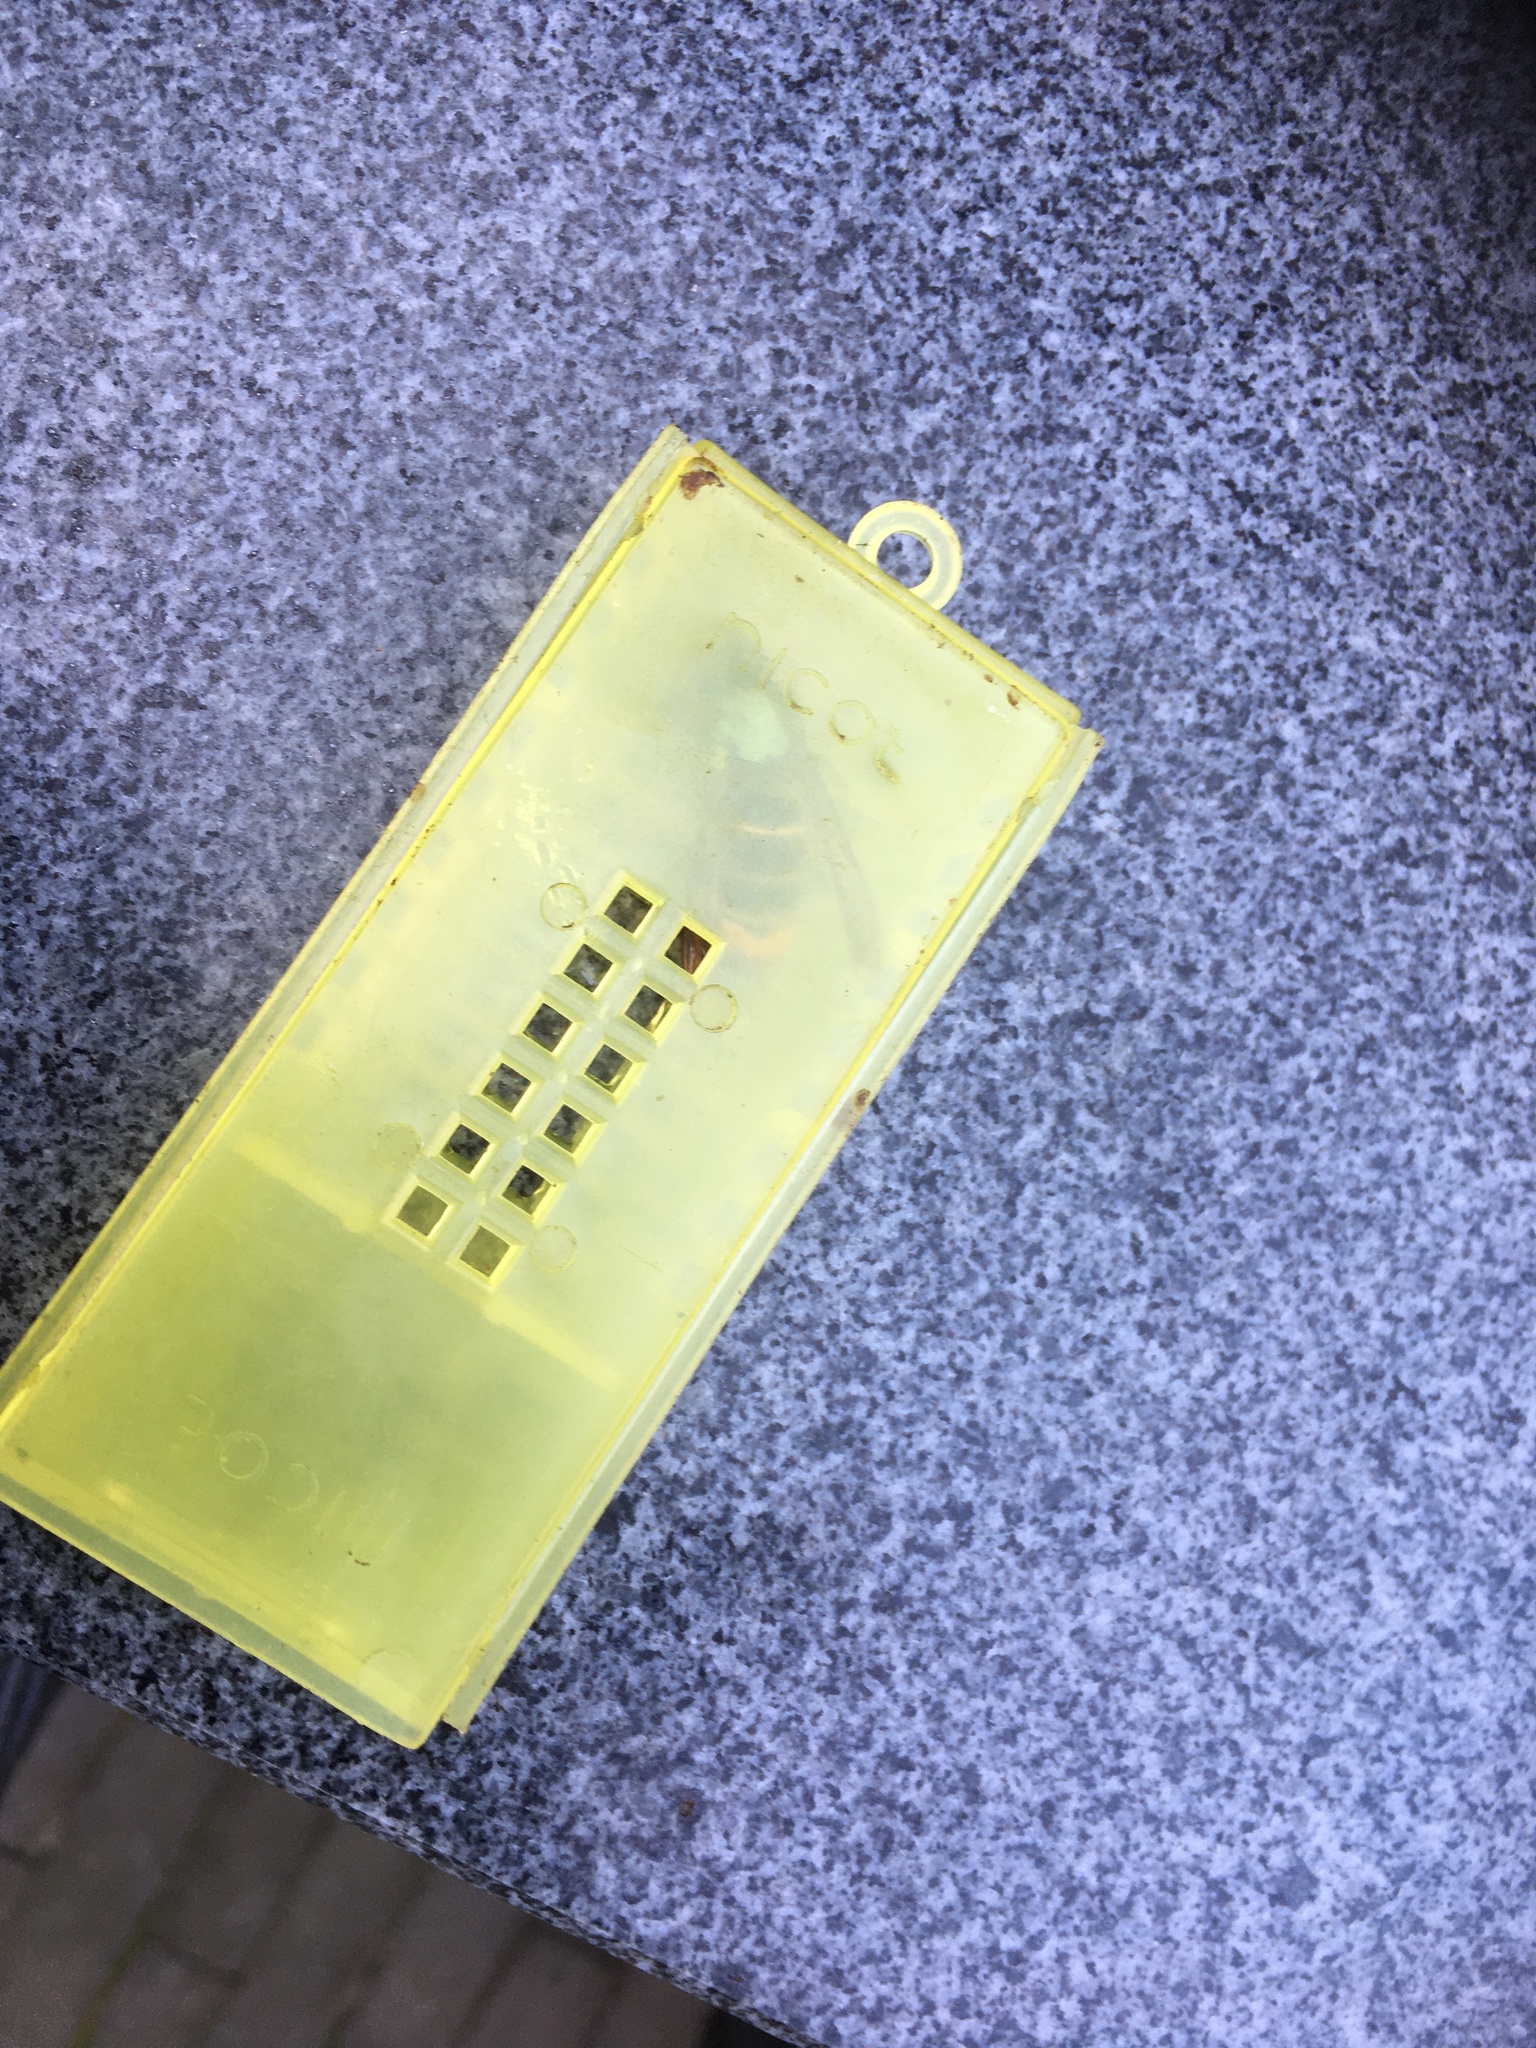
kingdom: Animalia
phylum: Arthropoda
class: Insecta
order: Hymenoptera
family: Vespidae
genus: Vespa
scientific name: Vespa velutina
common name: Asian hornet
